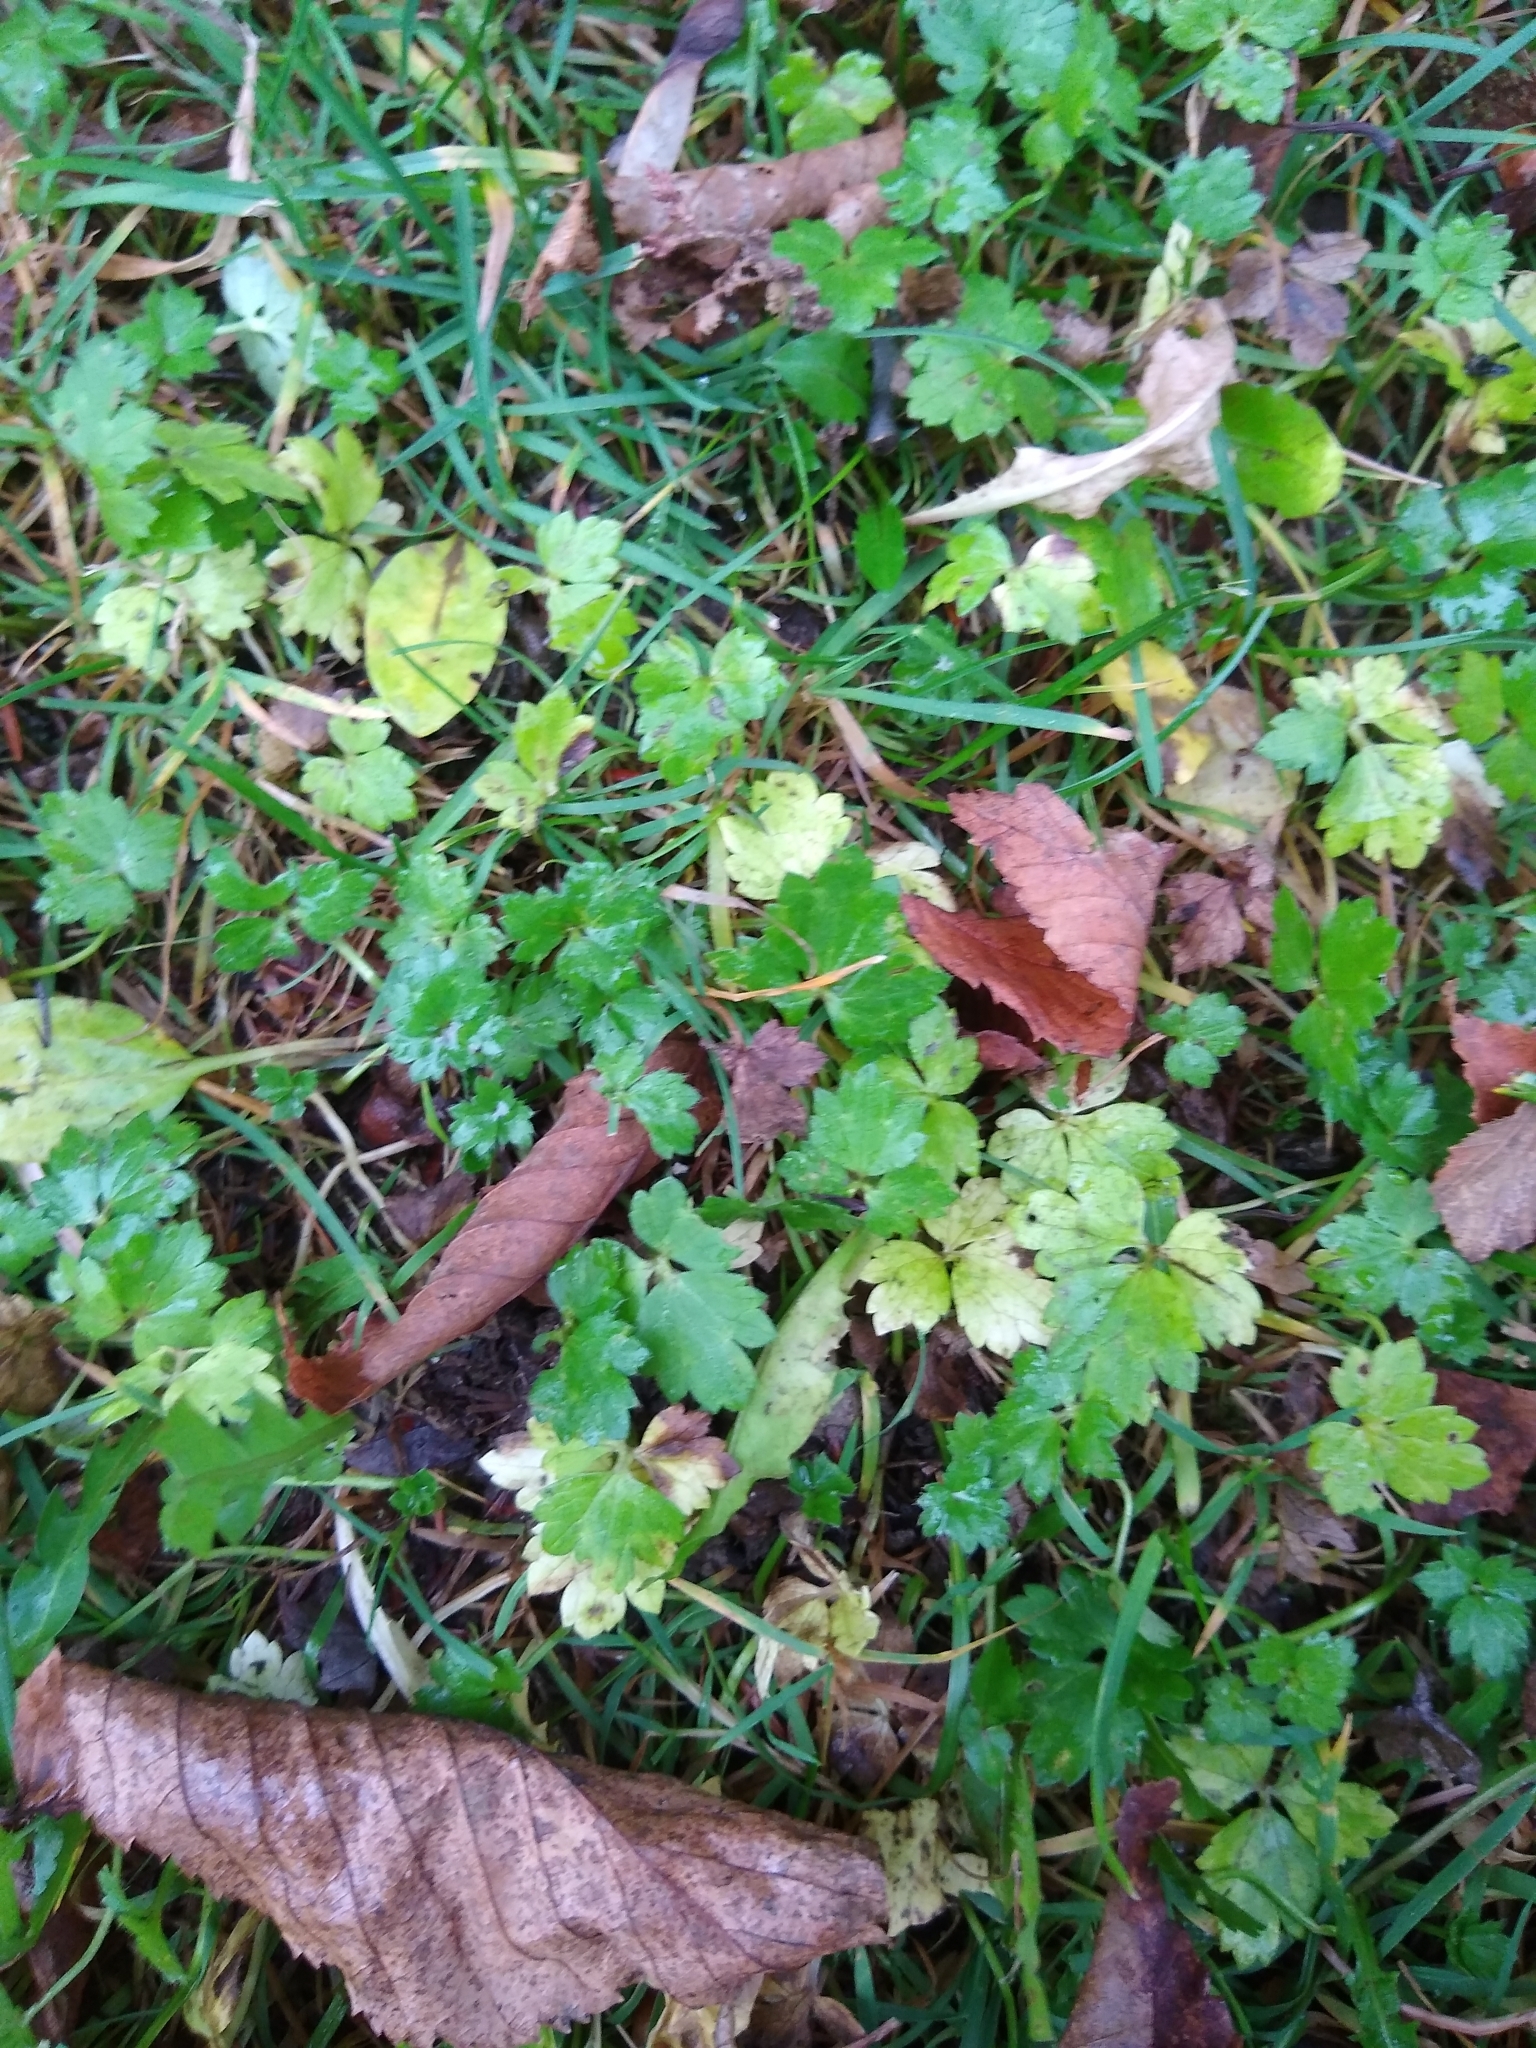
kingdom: Plantae
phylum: Tracheophyta
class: Magnoliopsida
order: Ranunculales
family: Ranunculaceae
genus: Ranunculus
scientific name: Ranunculus repens
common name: Creeping buttercup
